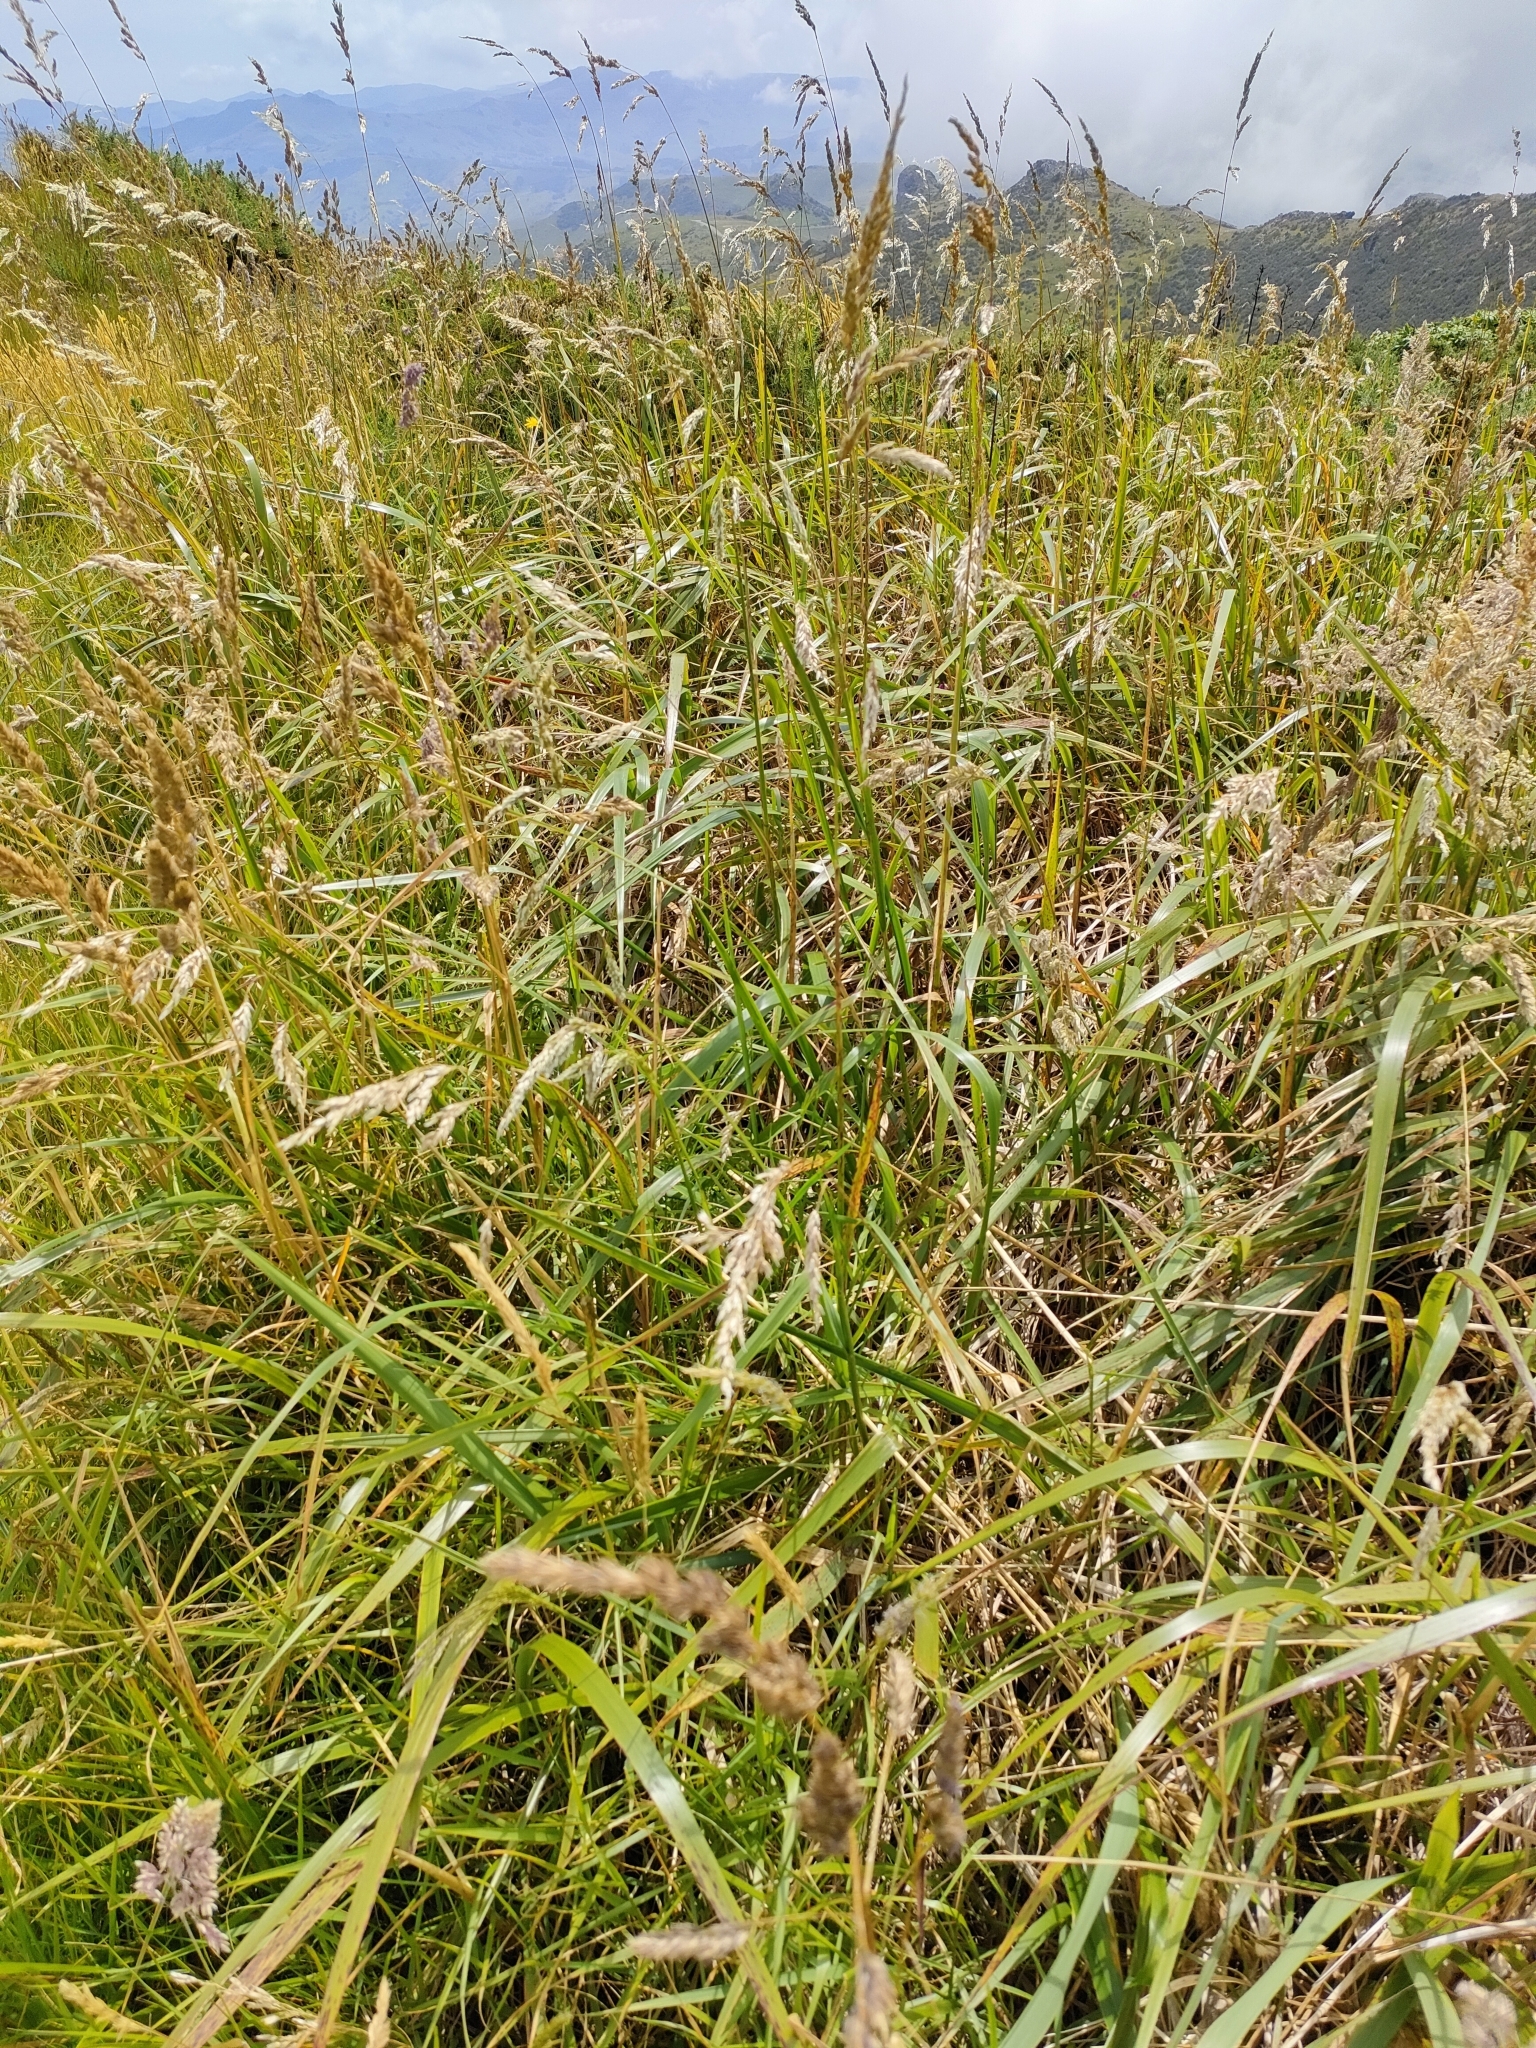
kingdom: Plantae
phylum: Tracheophyta
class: Liliopsida
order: Poales
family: Poaceae
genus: Anthoxanthum
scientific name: Anthoxanthum redolens
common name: Sweet holy grass
